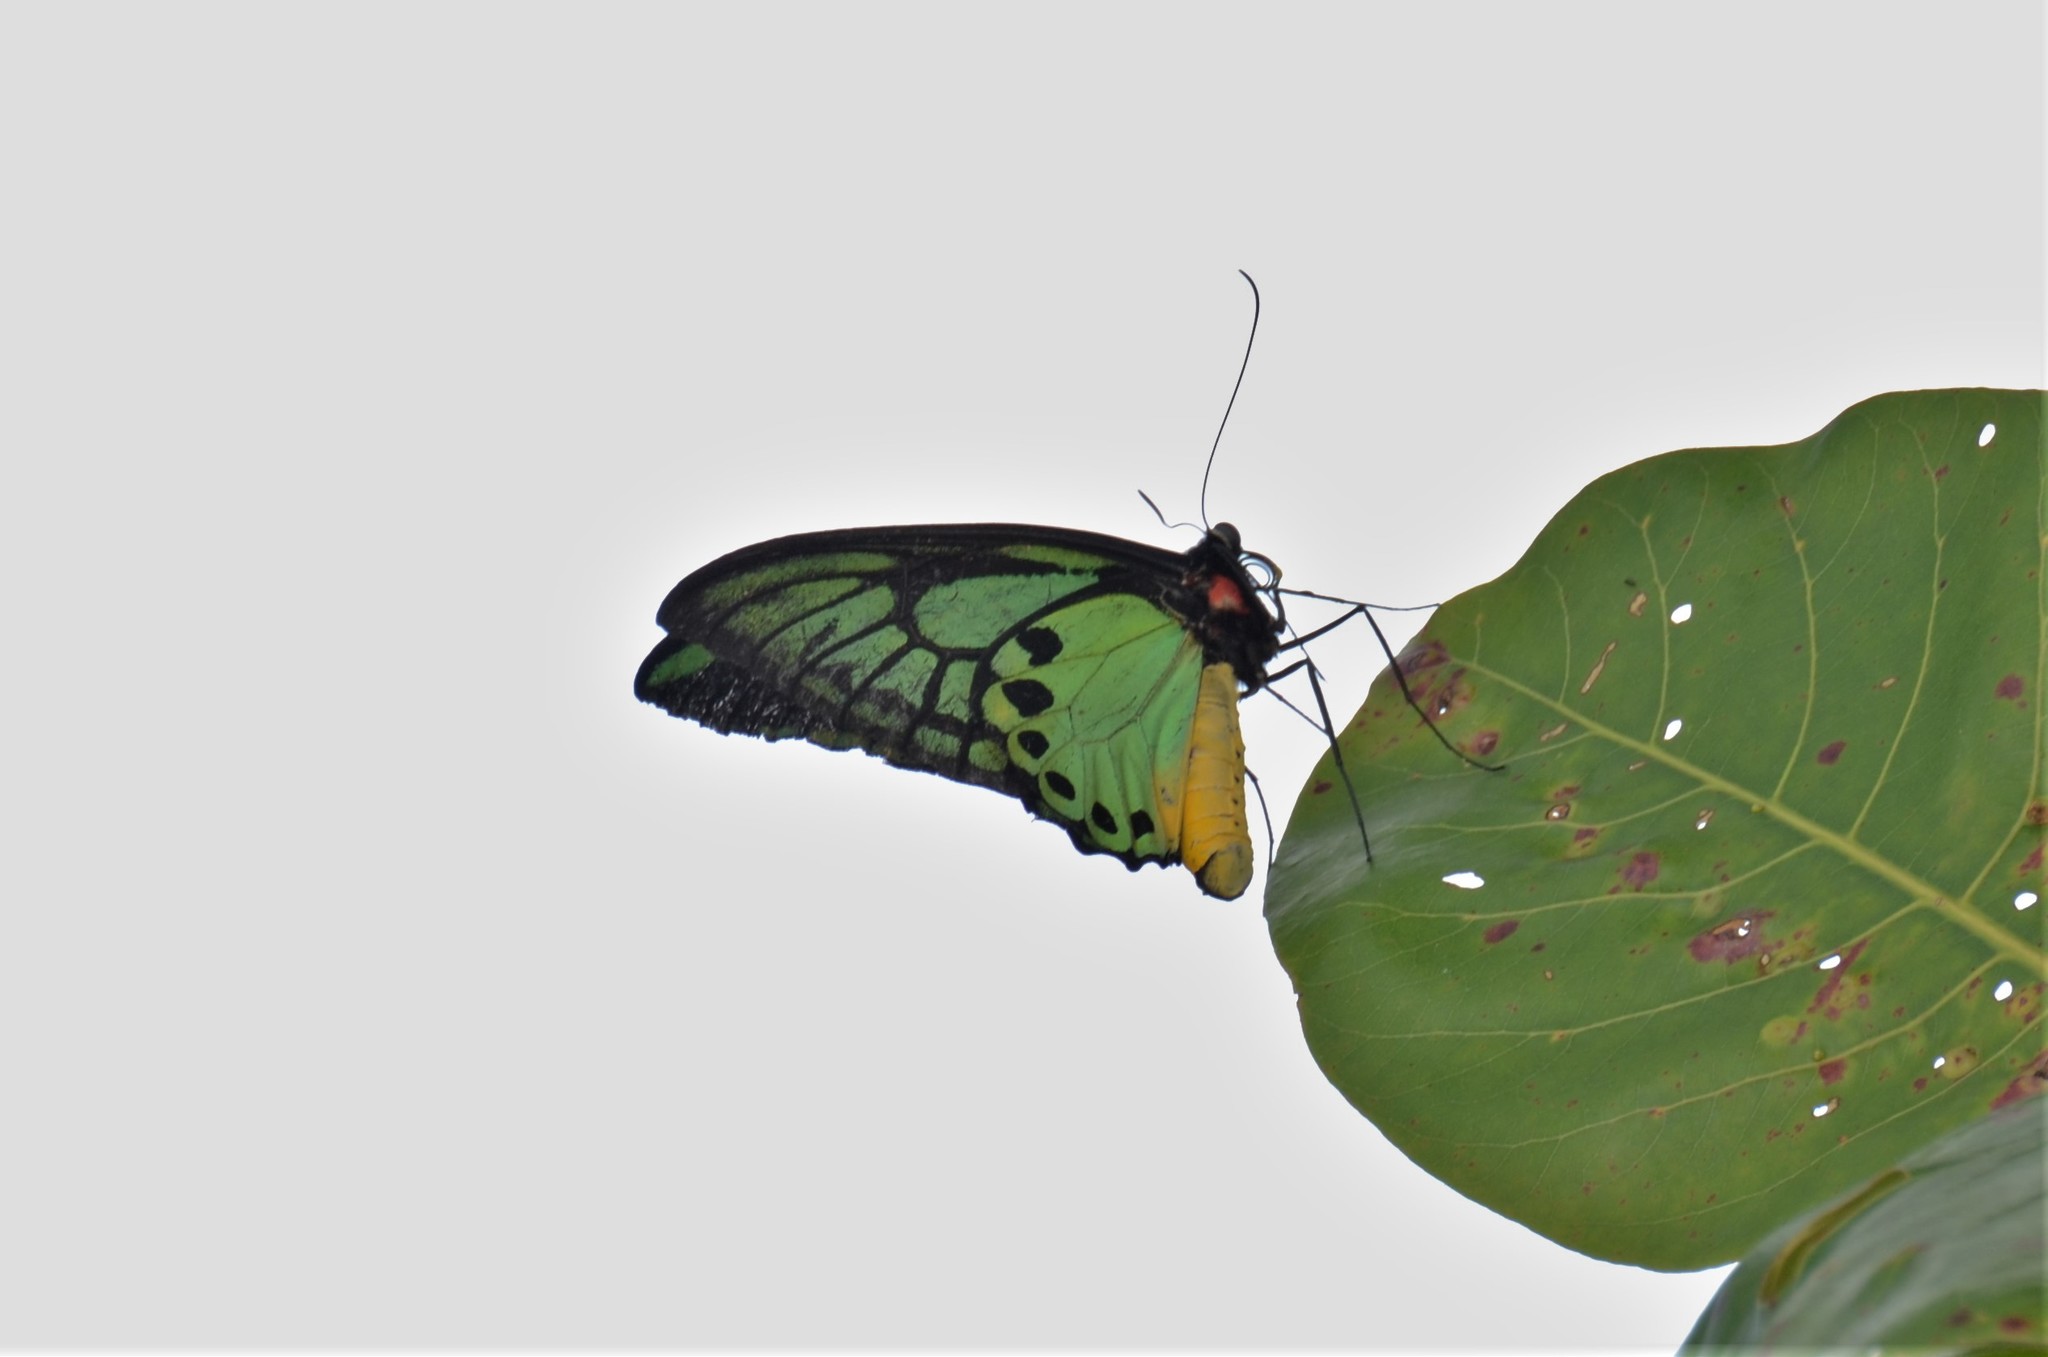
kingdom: Animalia
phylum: Arthropoda
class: Insecta
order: Lepidoptera
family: Papilionidae
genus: Ornithoptera
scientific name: Ornithoptera priamus
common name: Cape york birdwing
